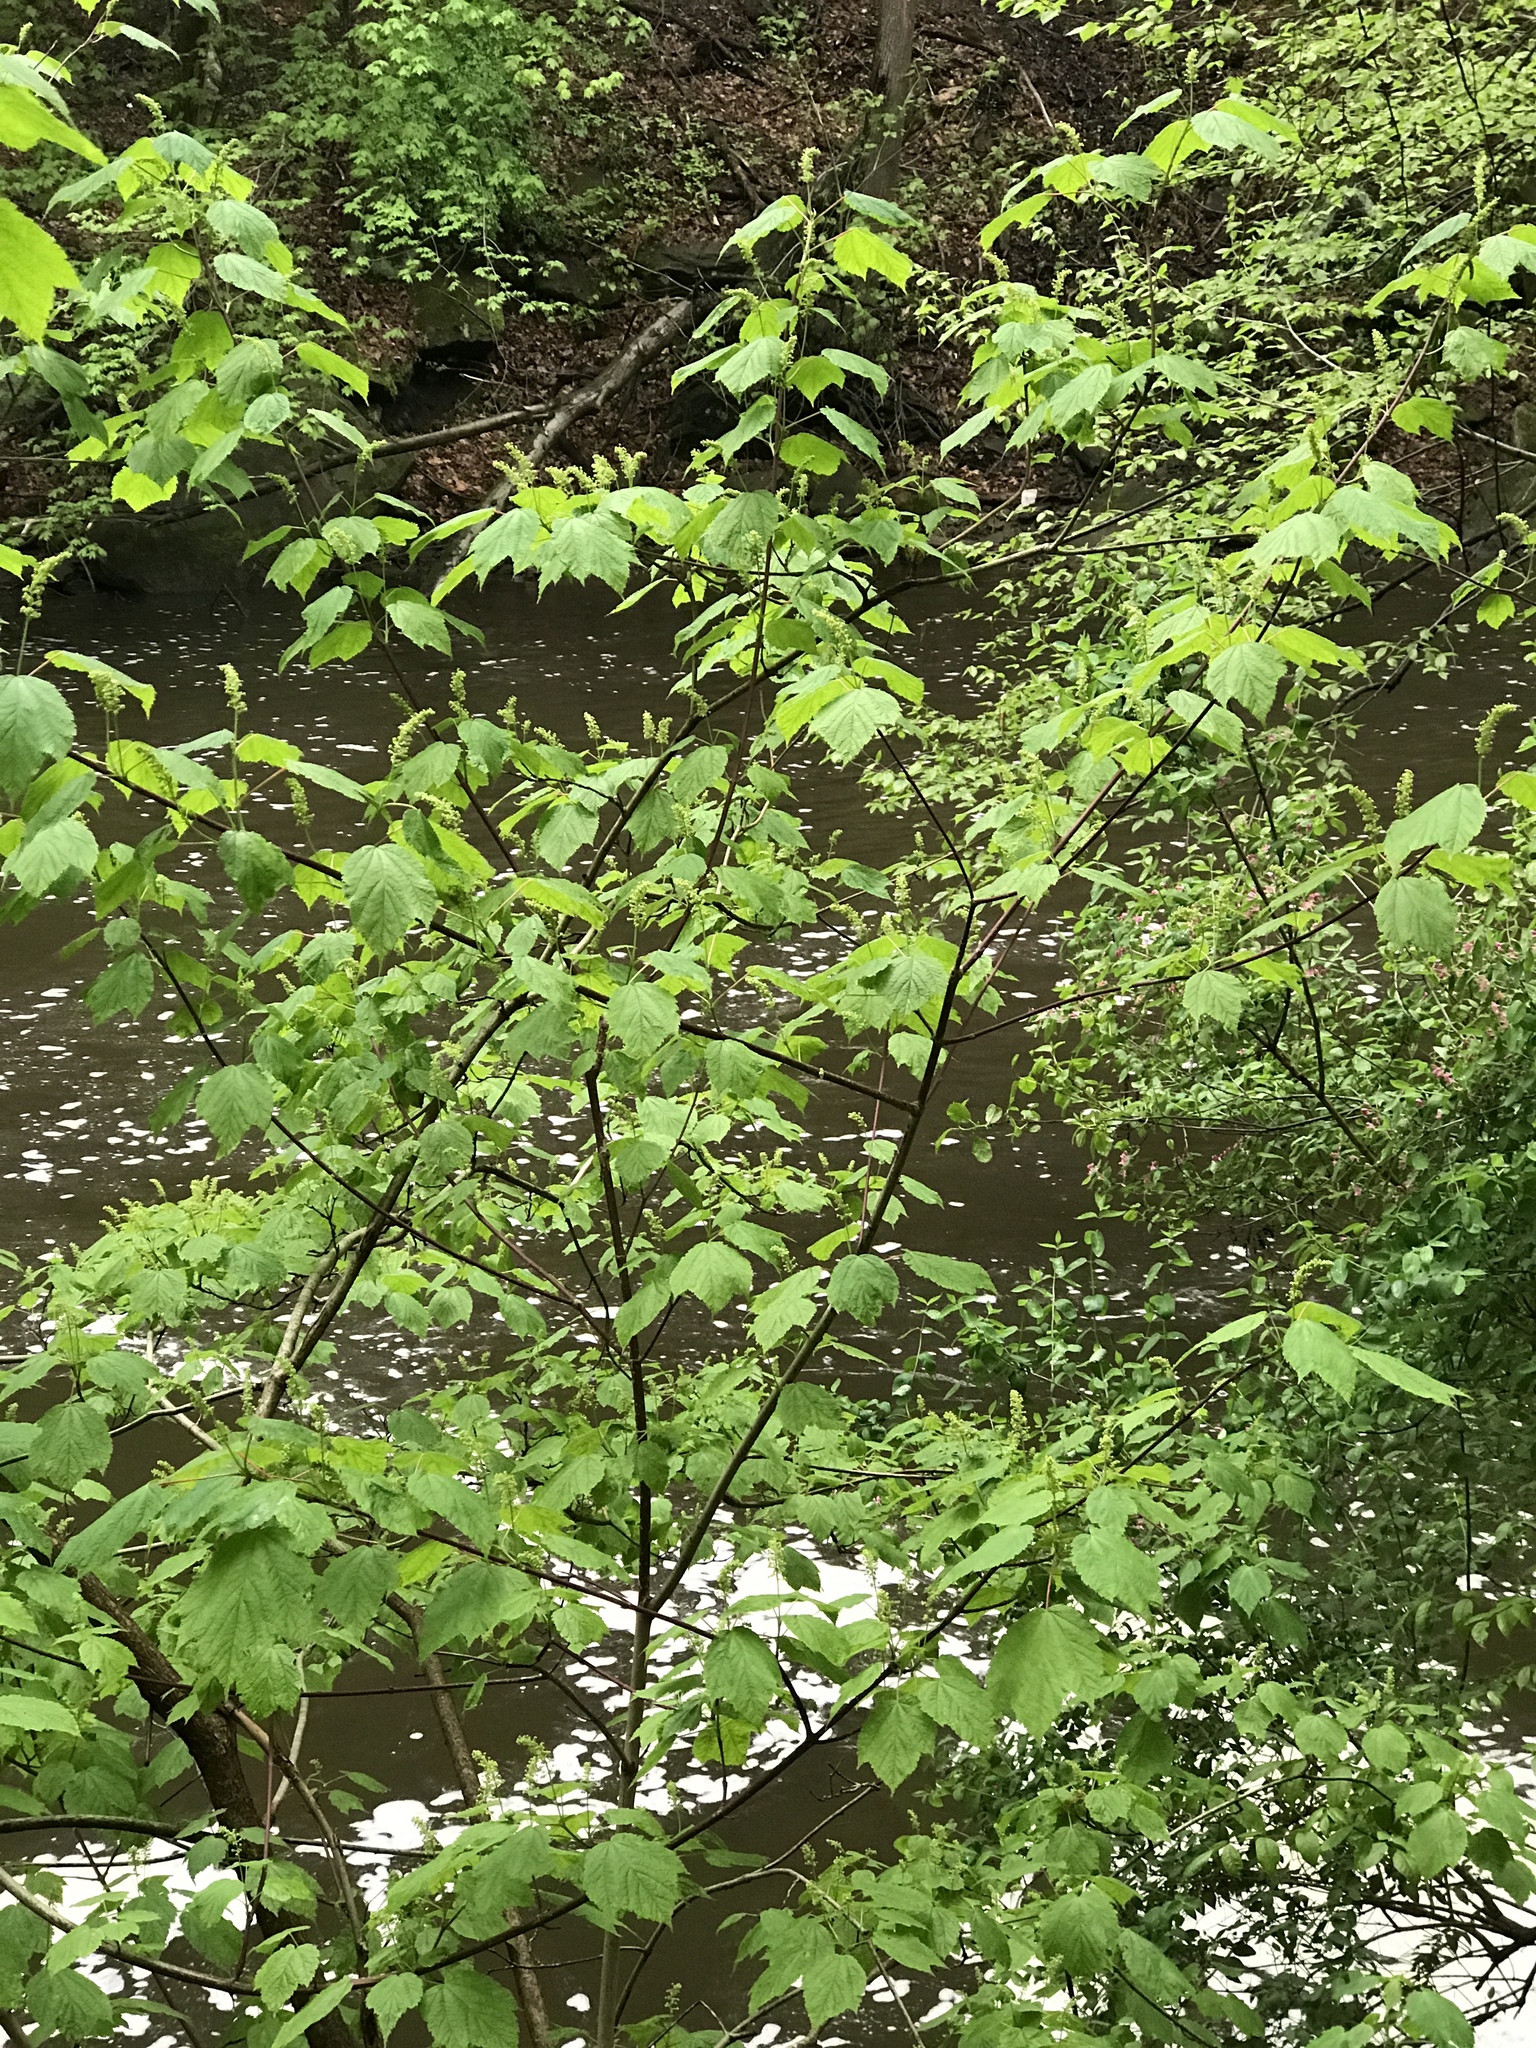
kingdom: Plantae
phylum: Tracheophyta
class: Magnoliopsida
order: Sapindales
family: Sapindaceae
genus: Acer
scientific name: Acer spicatum
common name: Mountain maple
